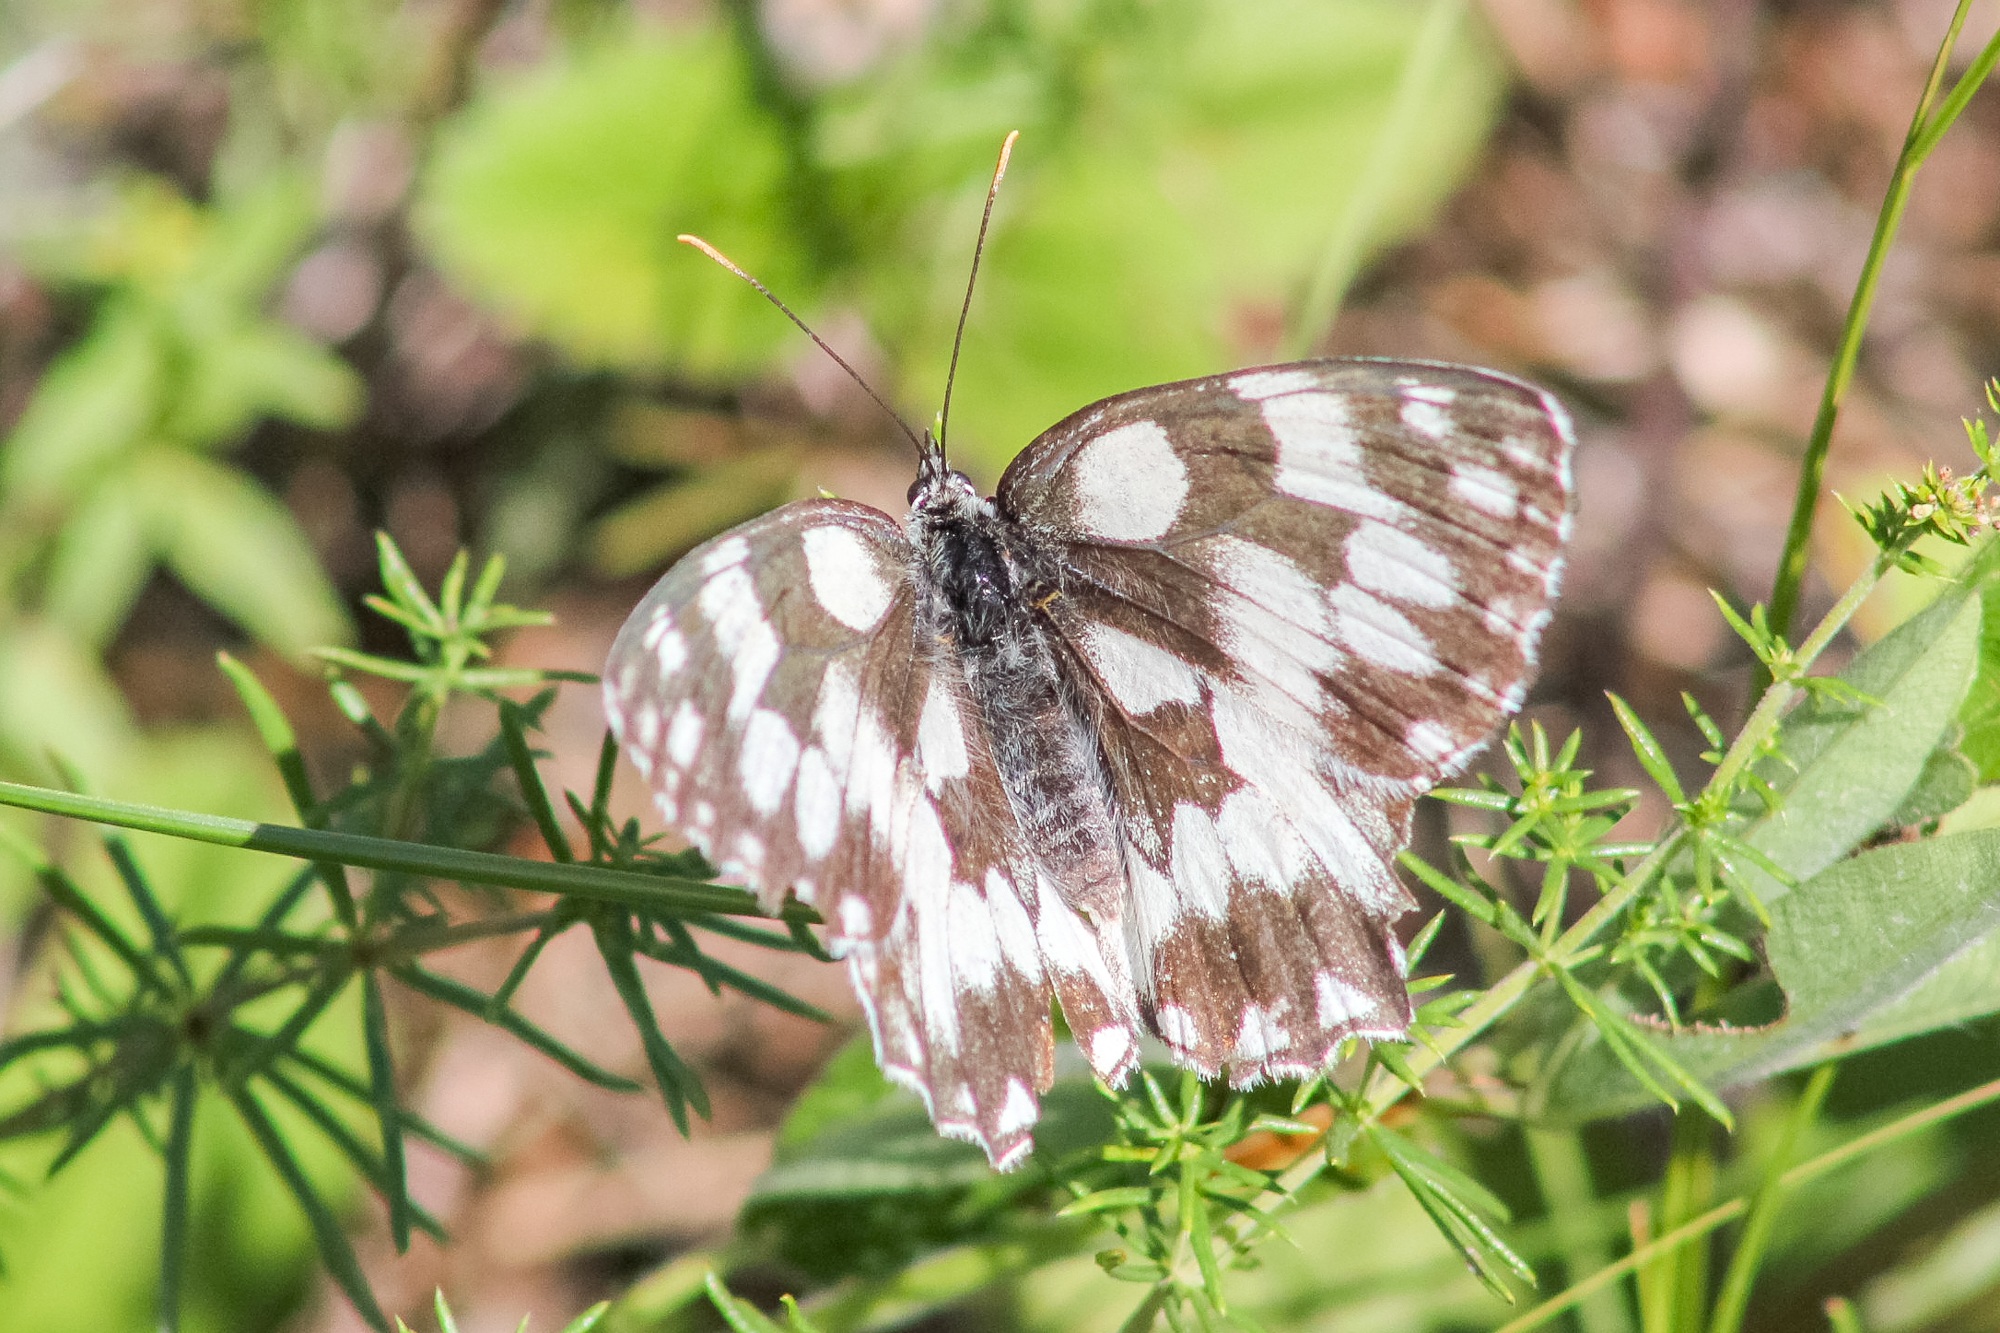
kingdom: Animalia
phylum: Arthropoda
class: Insecta
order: Lepidoptera
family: Nymphalidae
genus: Melanargia
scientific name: Melanargia galathea
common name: Marbled white
